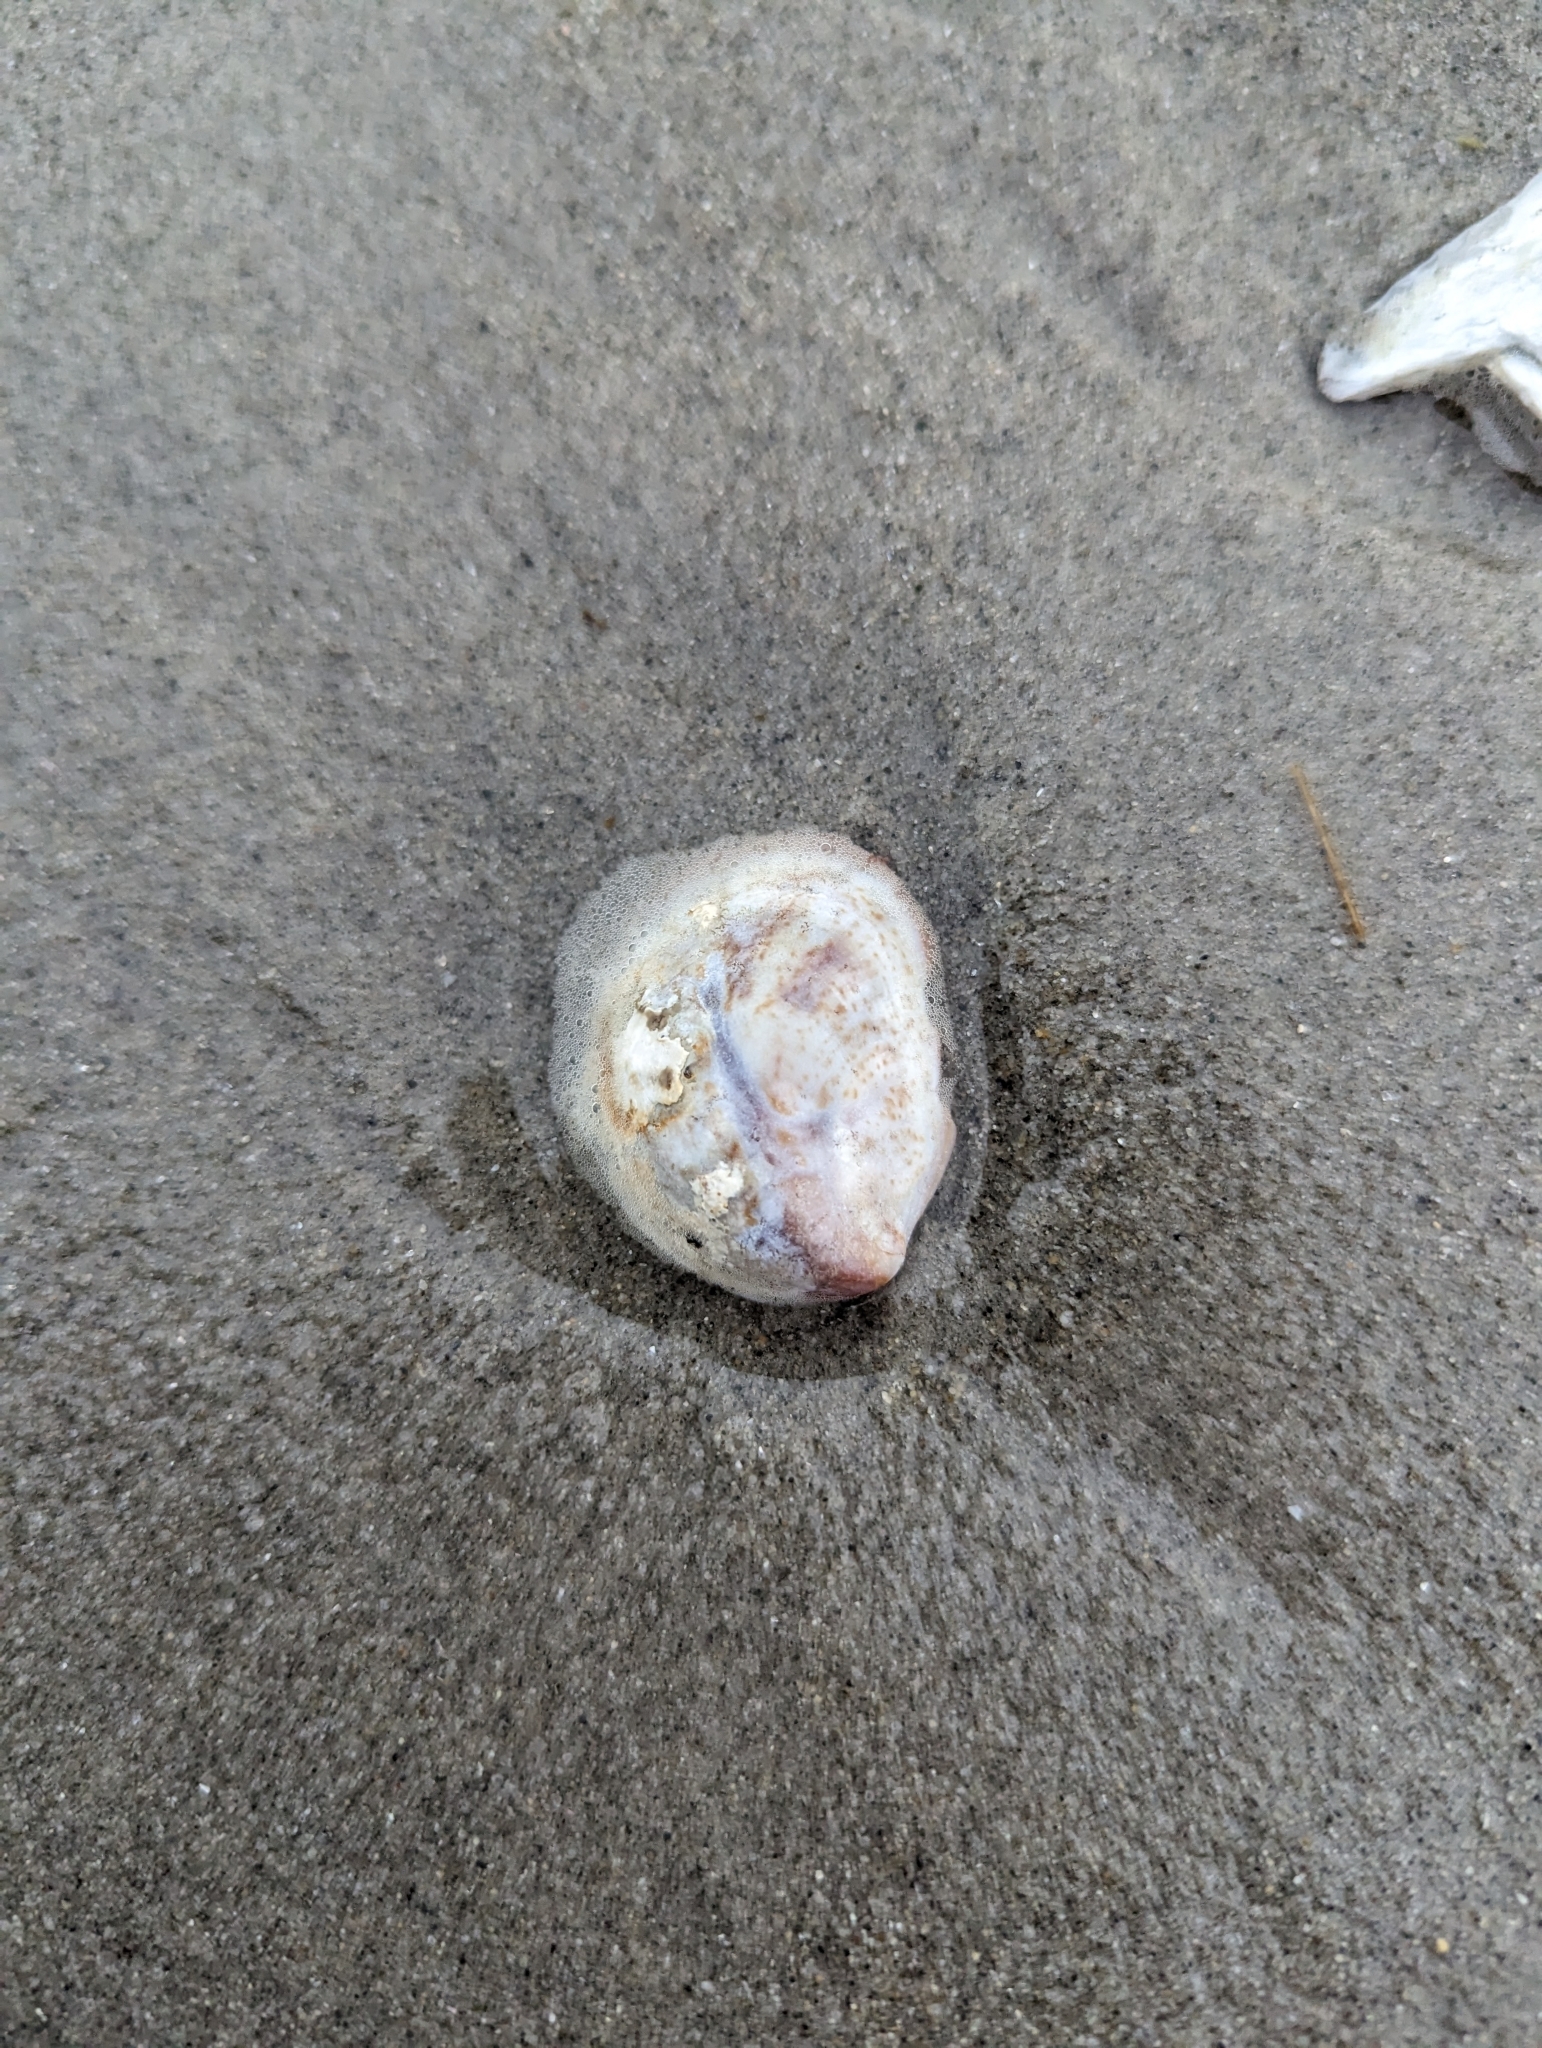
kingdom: Animalia
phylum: Mollusca
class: Gastropoda
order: Littorinimorpha
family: Calyptraeidae
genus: Crepidula
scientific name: Crepidula fornicata
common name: Slipper limpet
